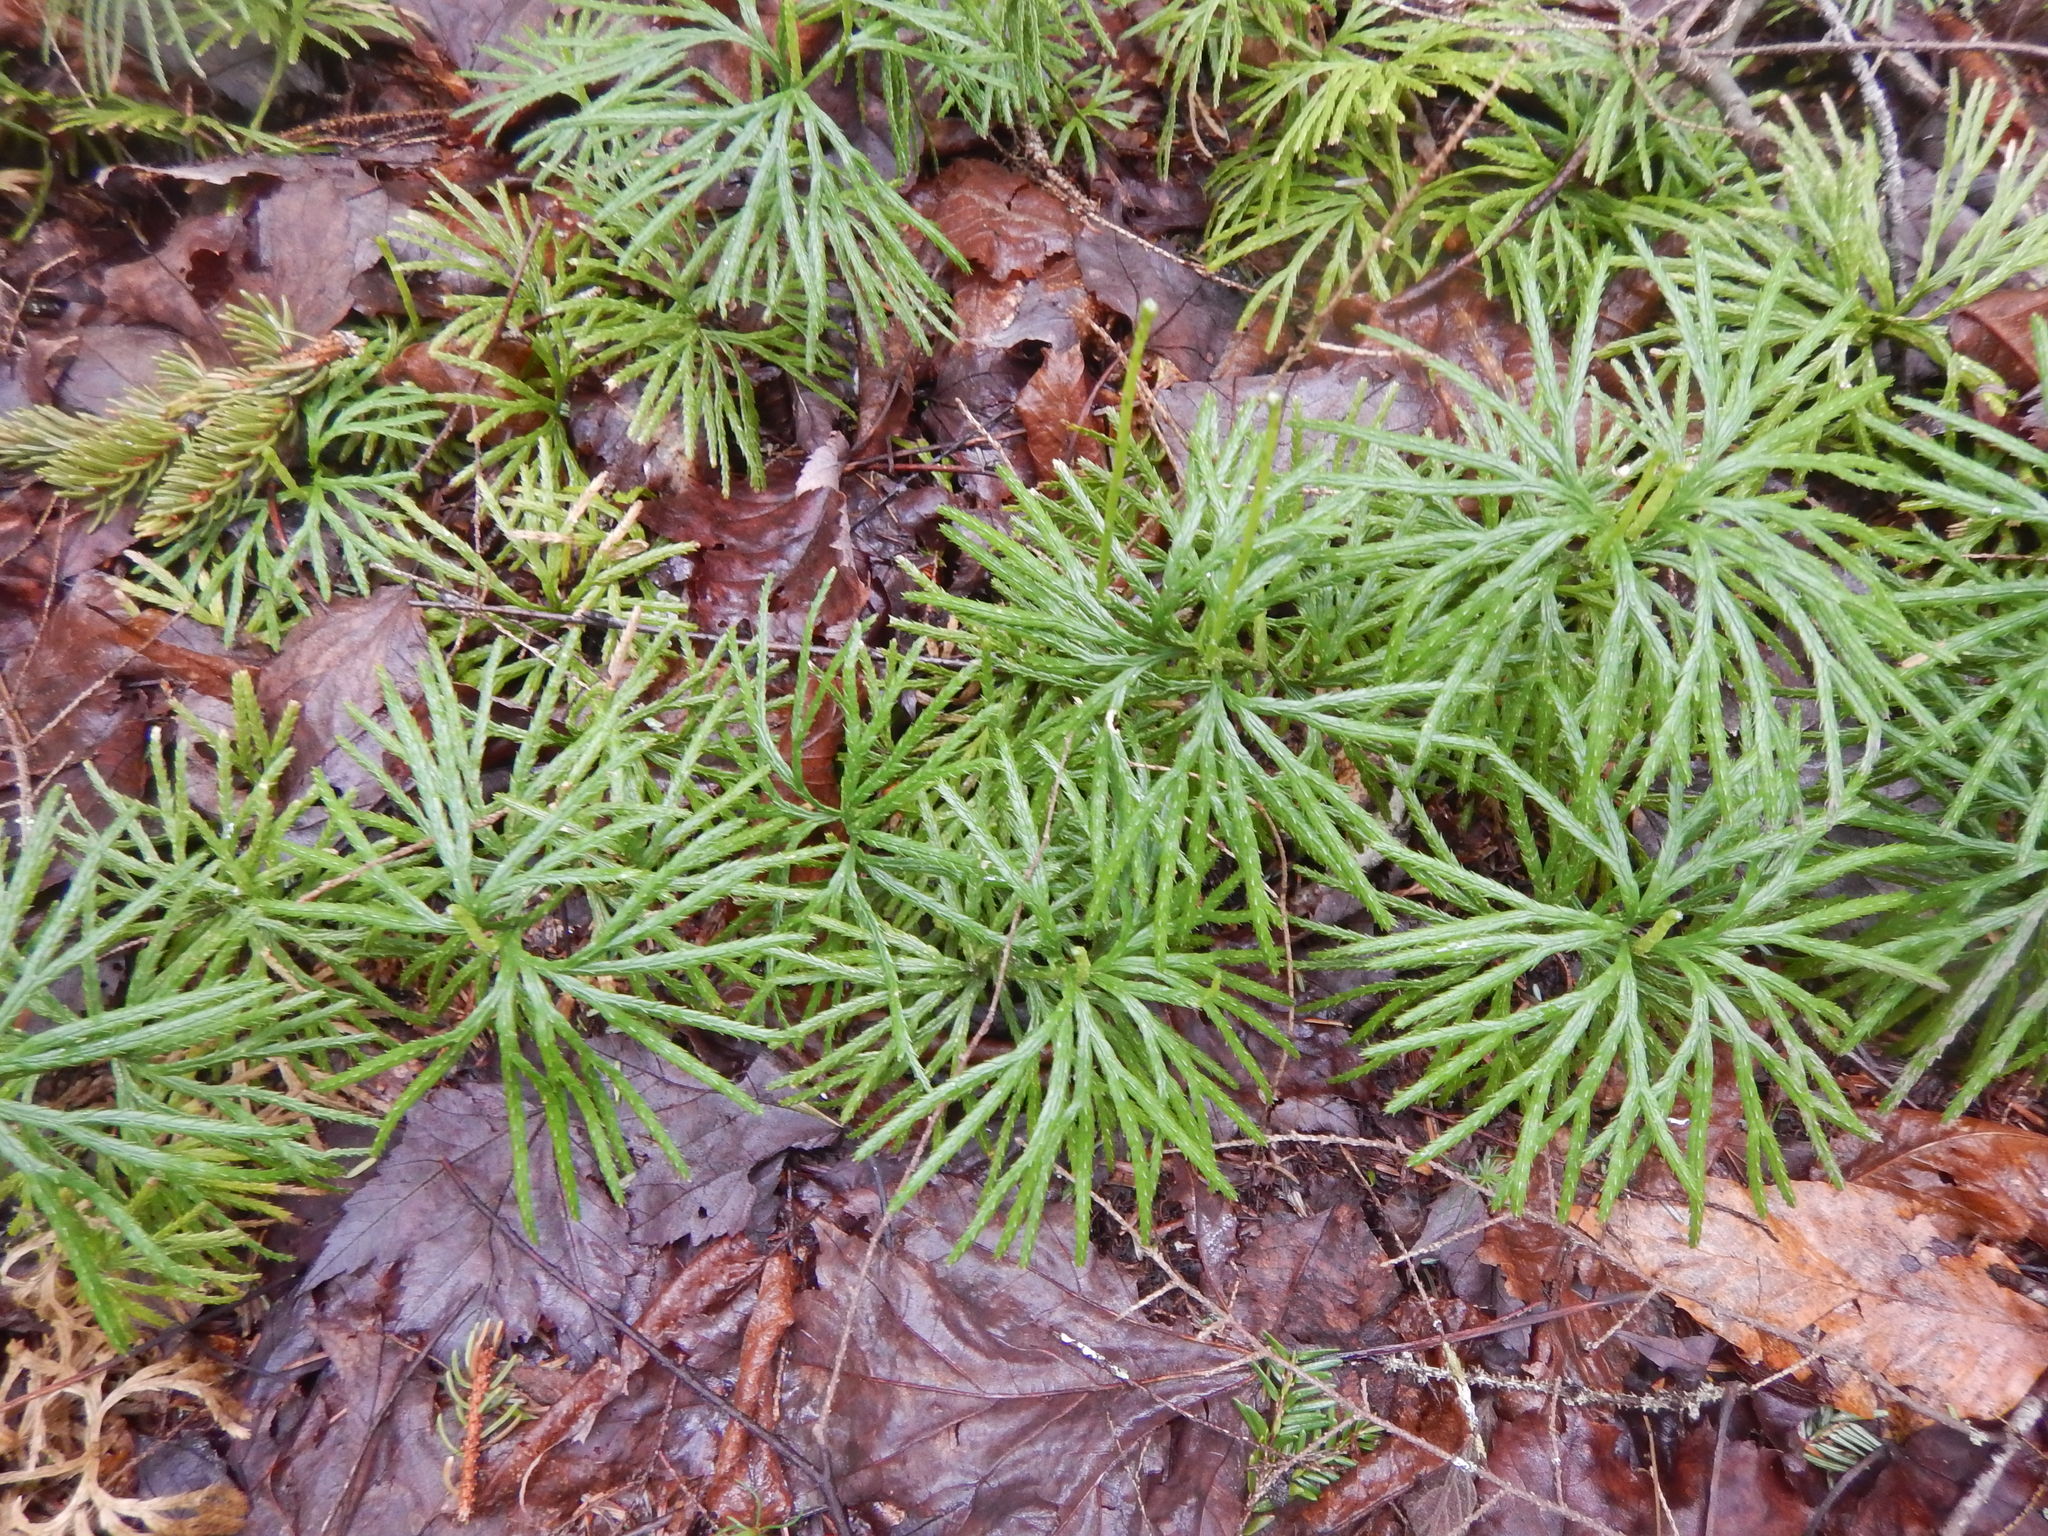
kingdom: Plantae
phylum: Tracheophyta
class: Lycopodiopsida
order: Lycopodiales
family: Lycopodiaceae
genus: Diphasiastrum
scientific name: Diphasiastrum digitatum
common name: Southern running-pine
